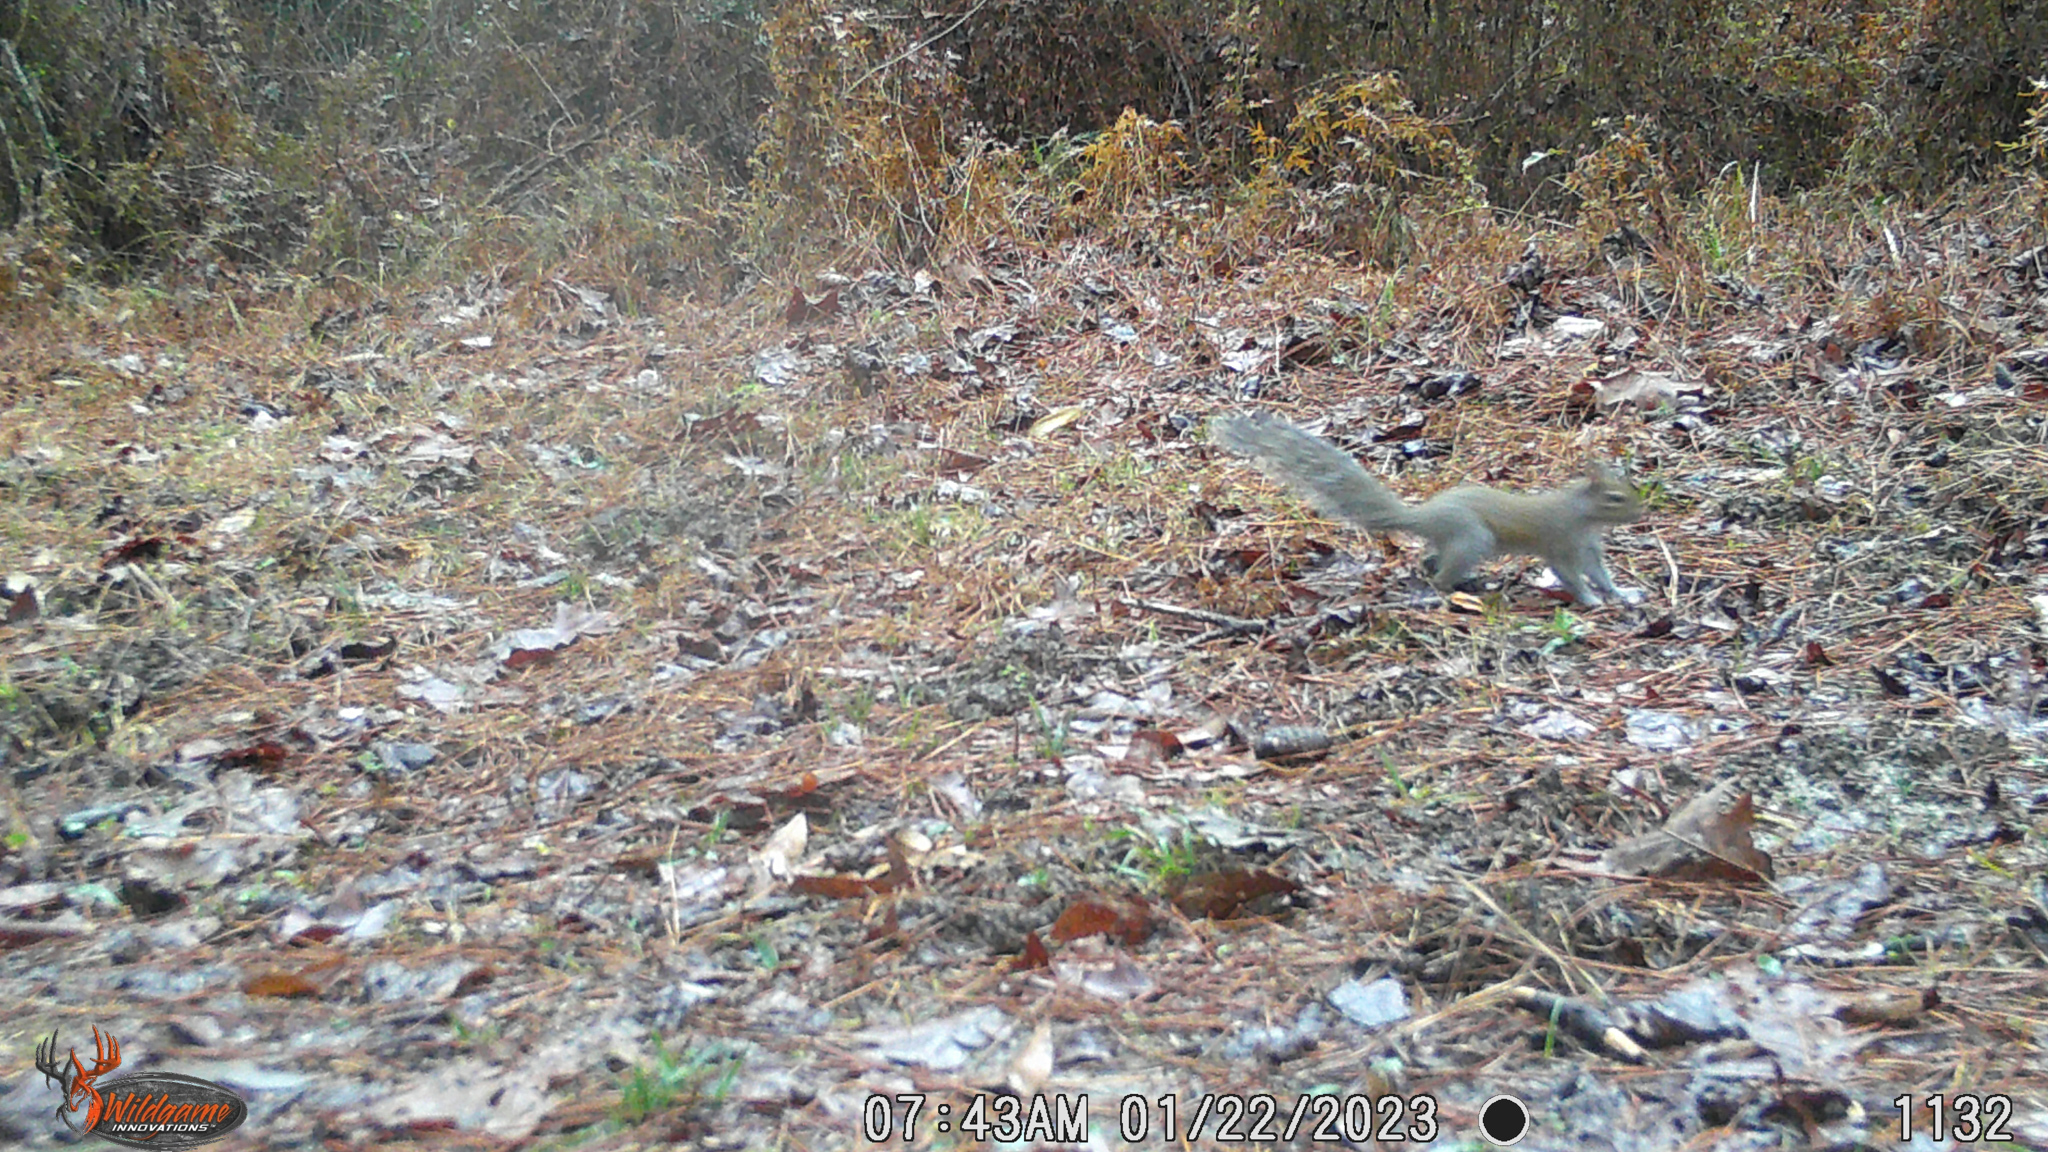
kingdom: Animalia
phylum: Chordata
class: Mammalia
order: Rodentia
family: Sciuridae
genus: Sciurus
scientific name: Sciurus carolinensis
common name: Eastern gray squirrel
